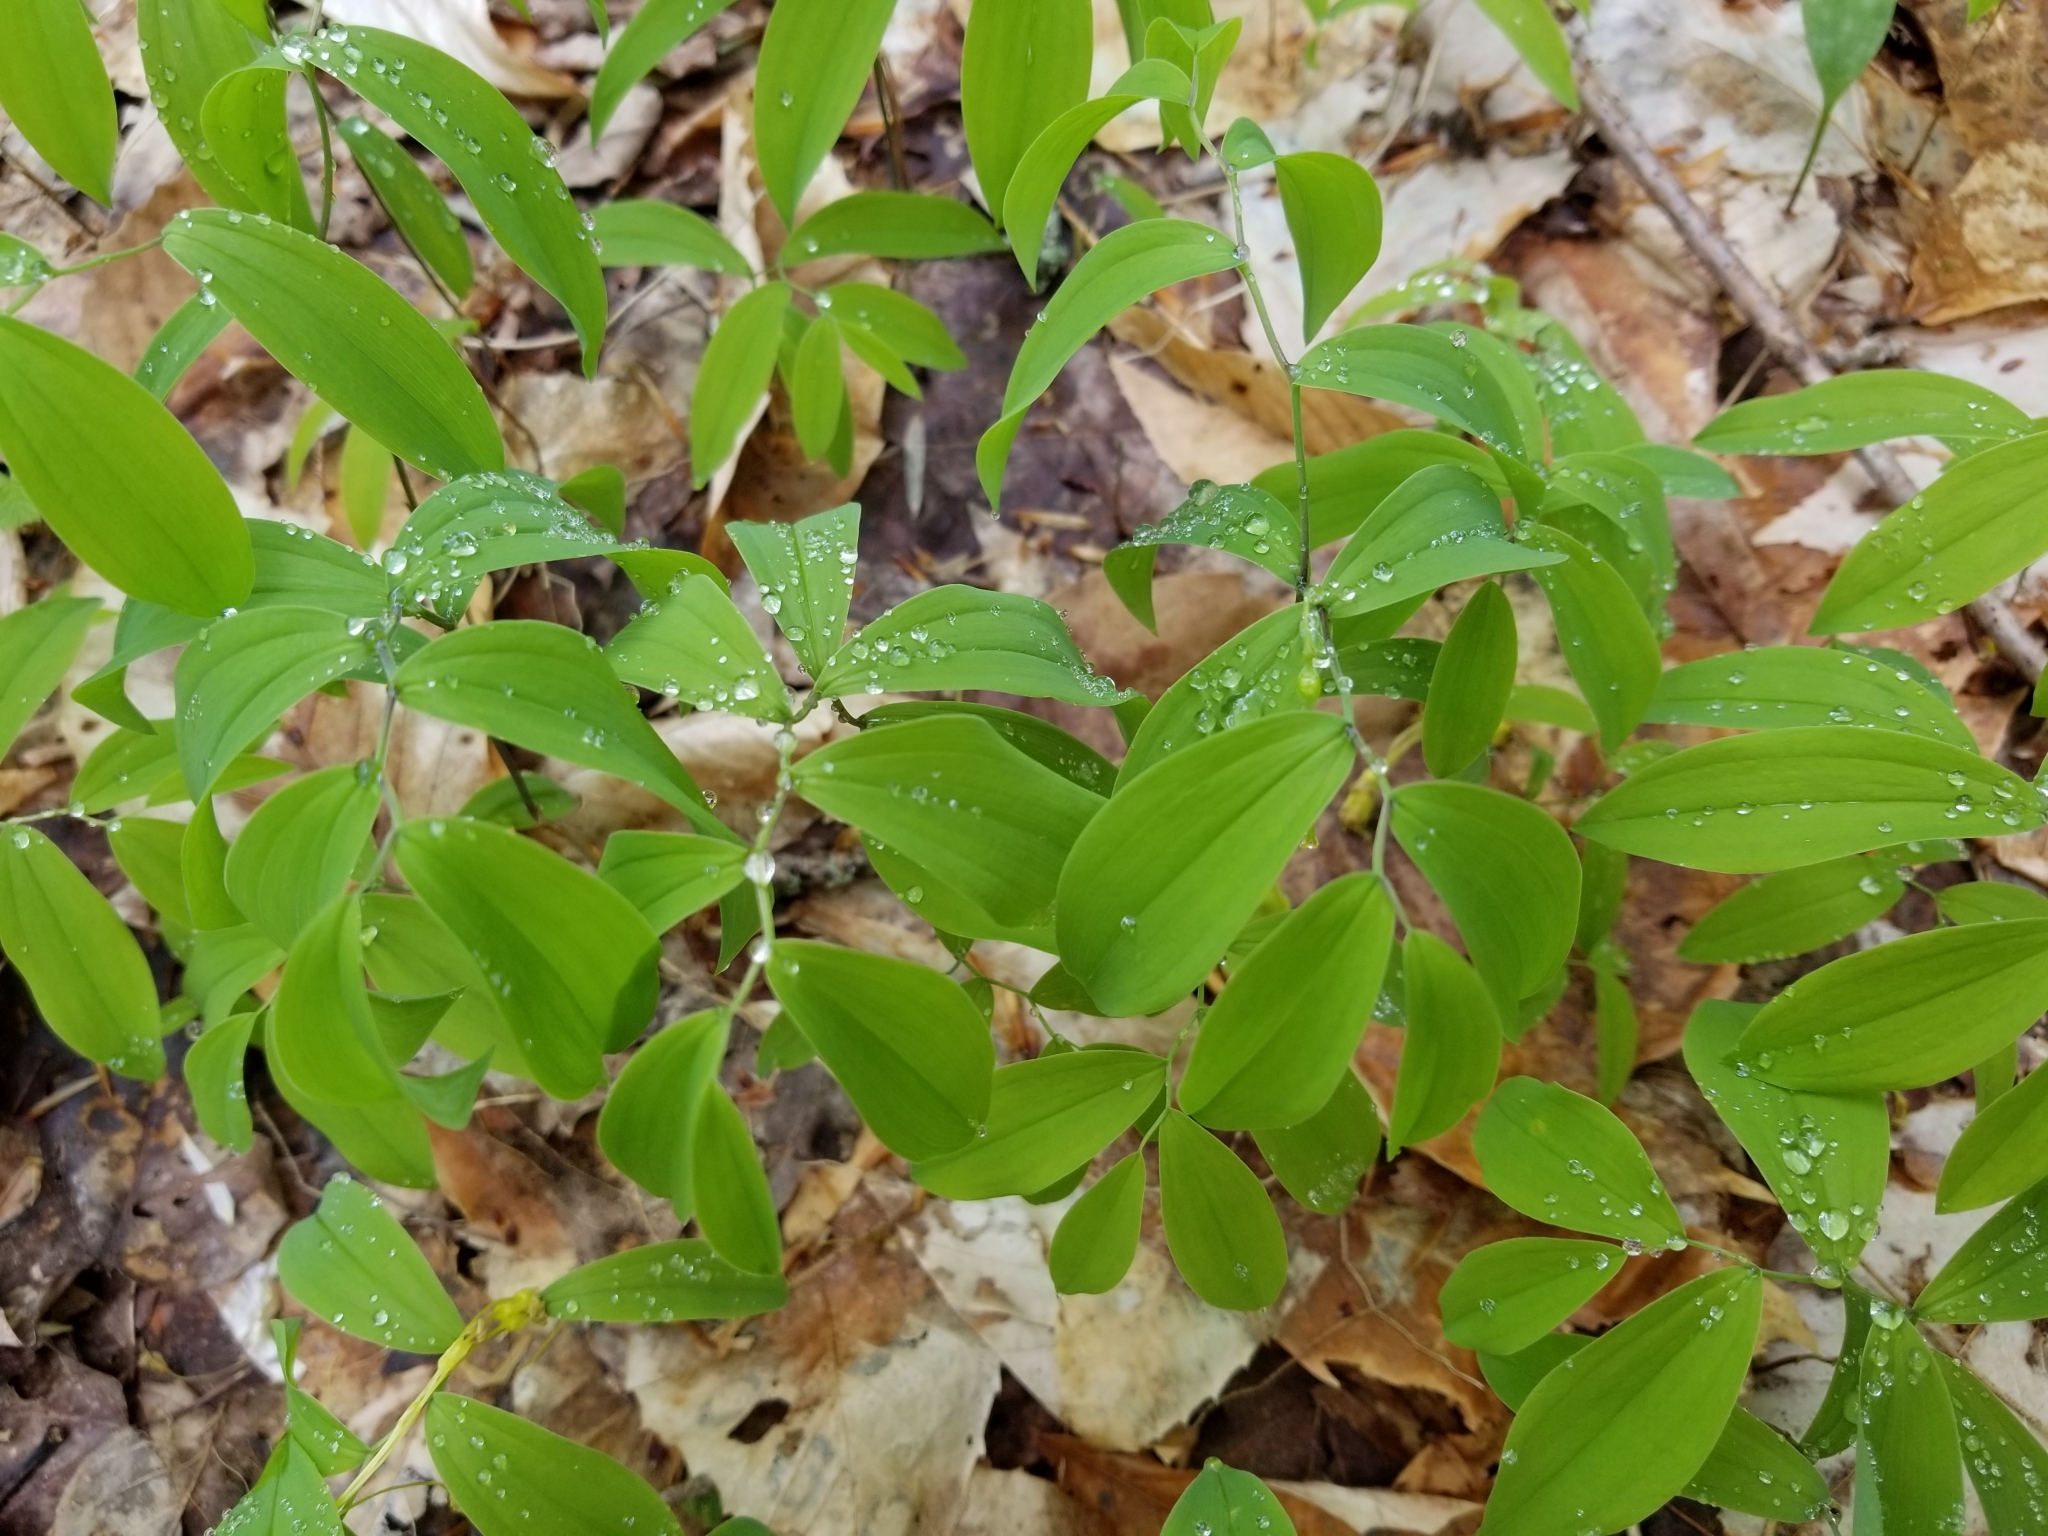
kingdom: Plantae
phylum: Tracheophyta
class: Liliopsida
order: Liliales
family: Colchicaceae
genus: Uvularia
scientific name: Uvularia sessilifolia
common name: Straw-lily
